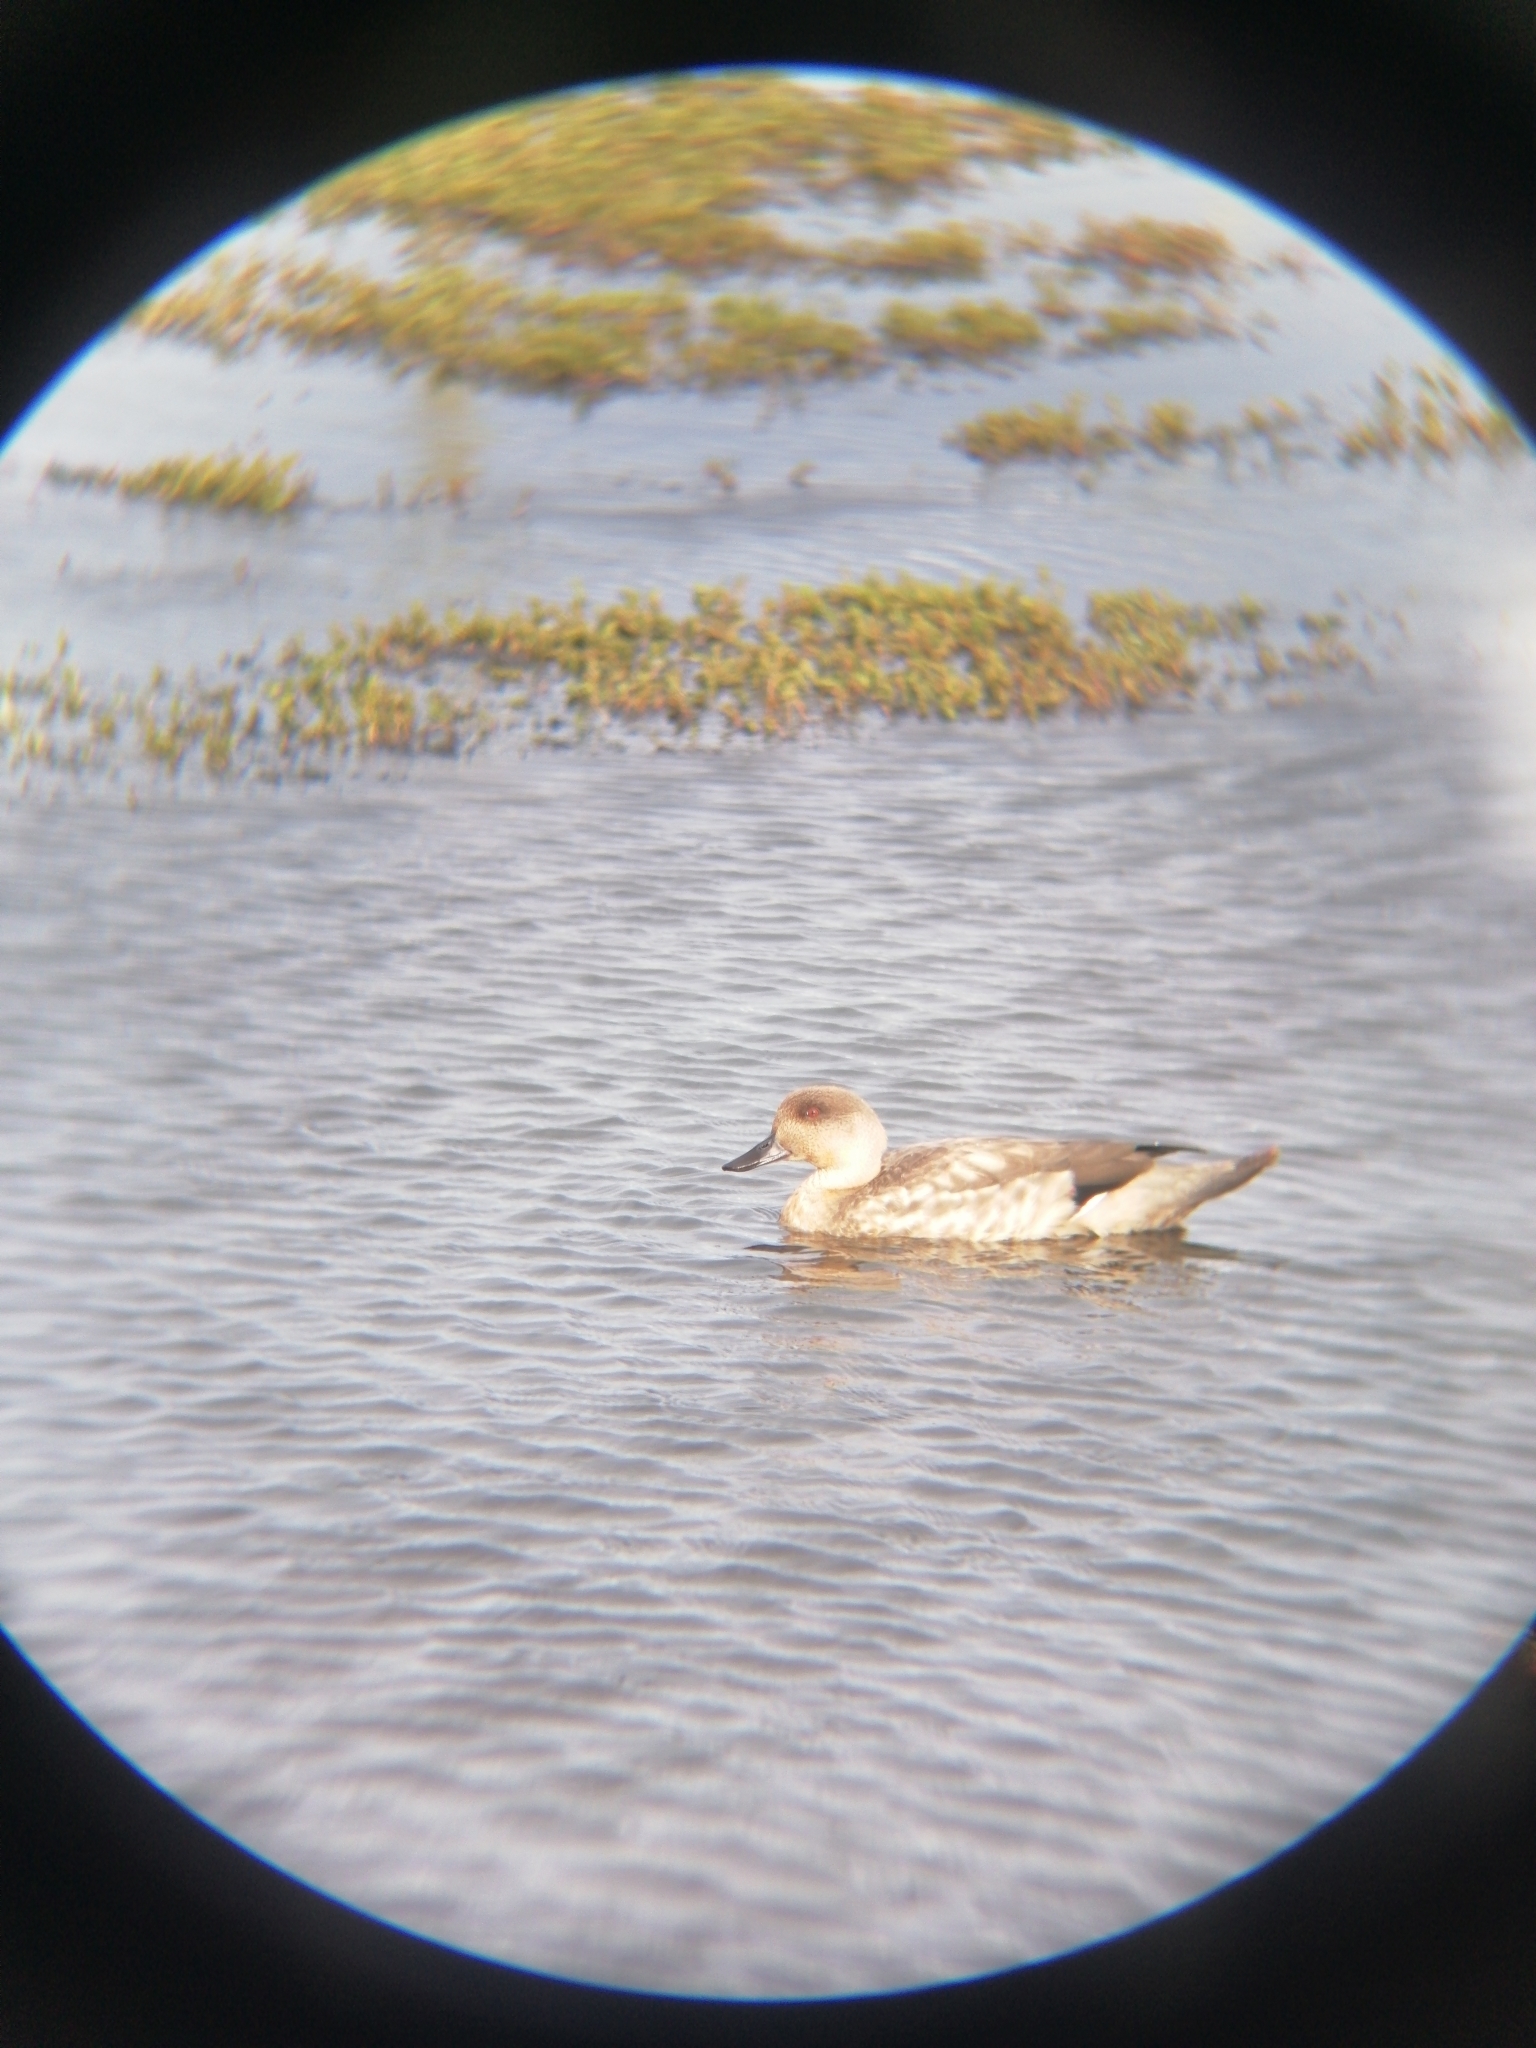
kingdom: Animalia
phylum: Chordata
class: Aves
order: Anseriformes
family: Anatidae
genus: Lophonetta
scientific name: Lophonetta specularioides
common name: Crested duck
